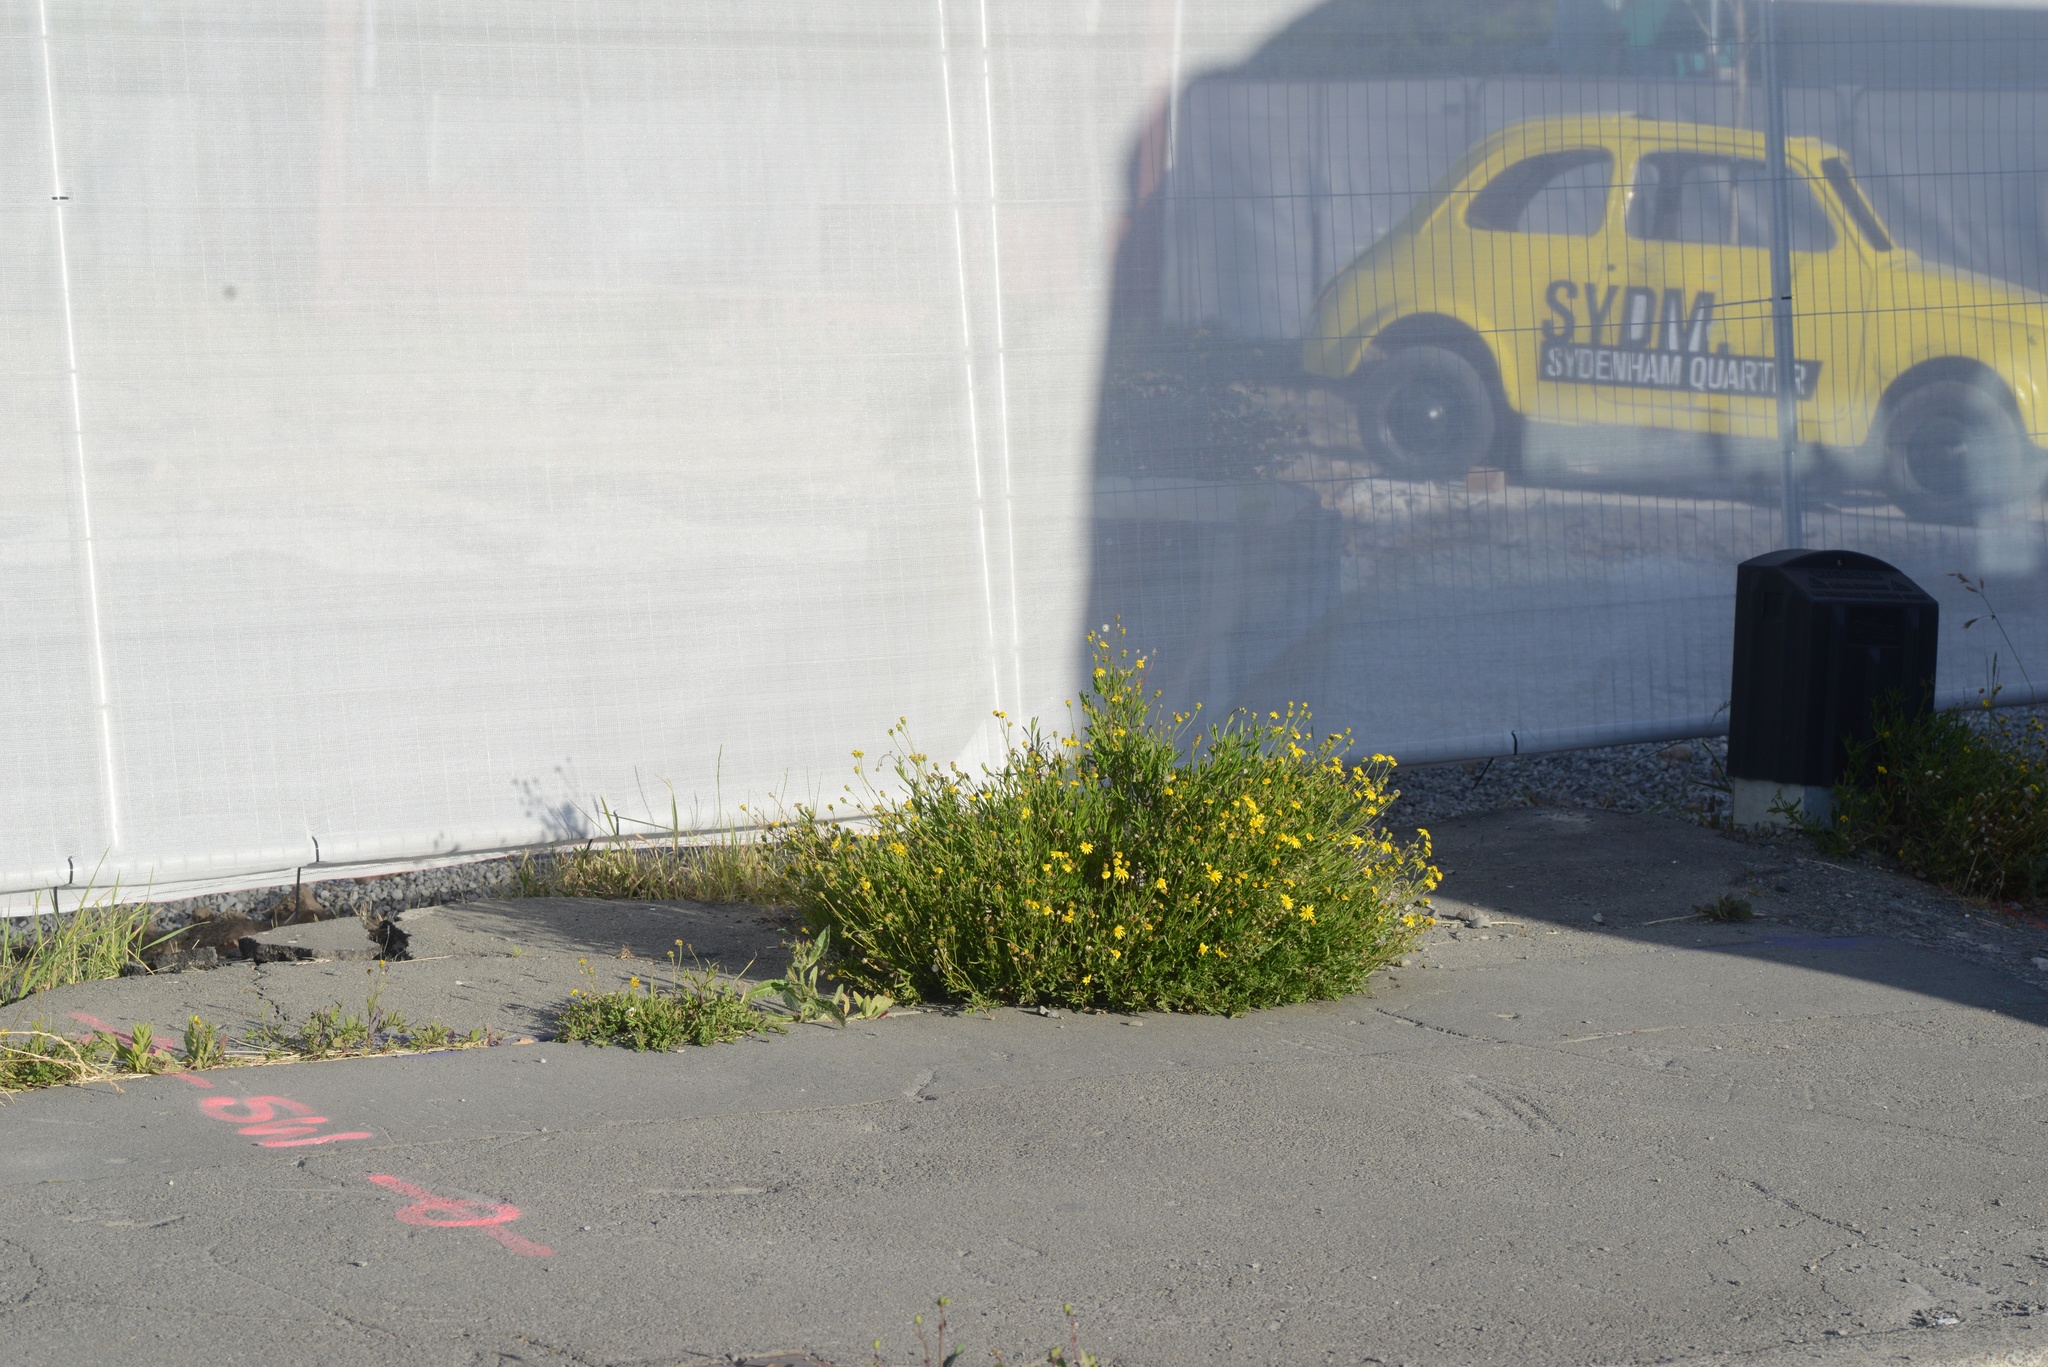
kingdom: Plantae
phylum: Tracheophyta
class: Magnoliopsida
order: Asterales
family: Asteraceae
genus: Senecio
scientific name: Senecio skirrhodon
